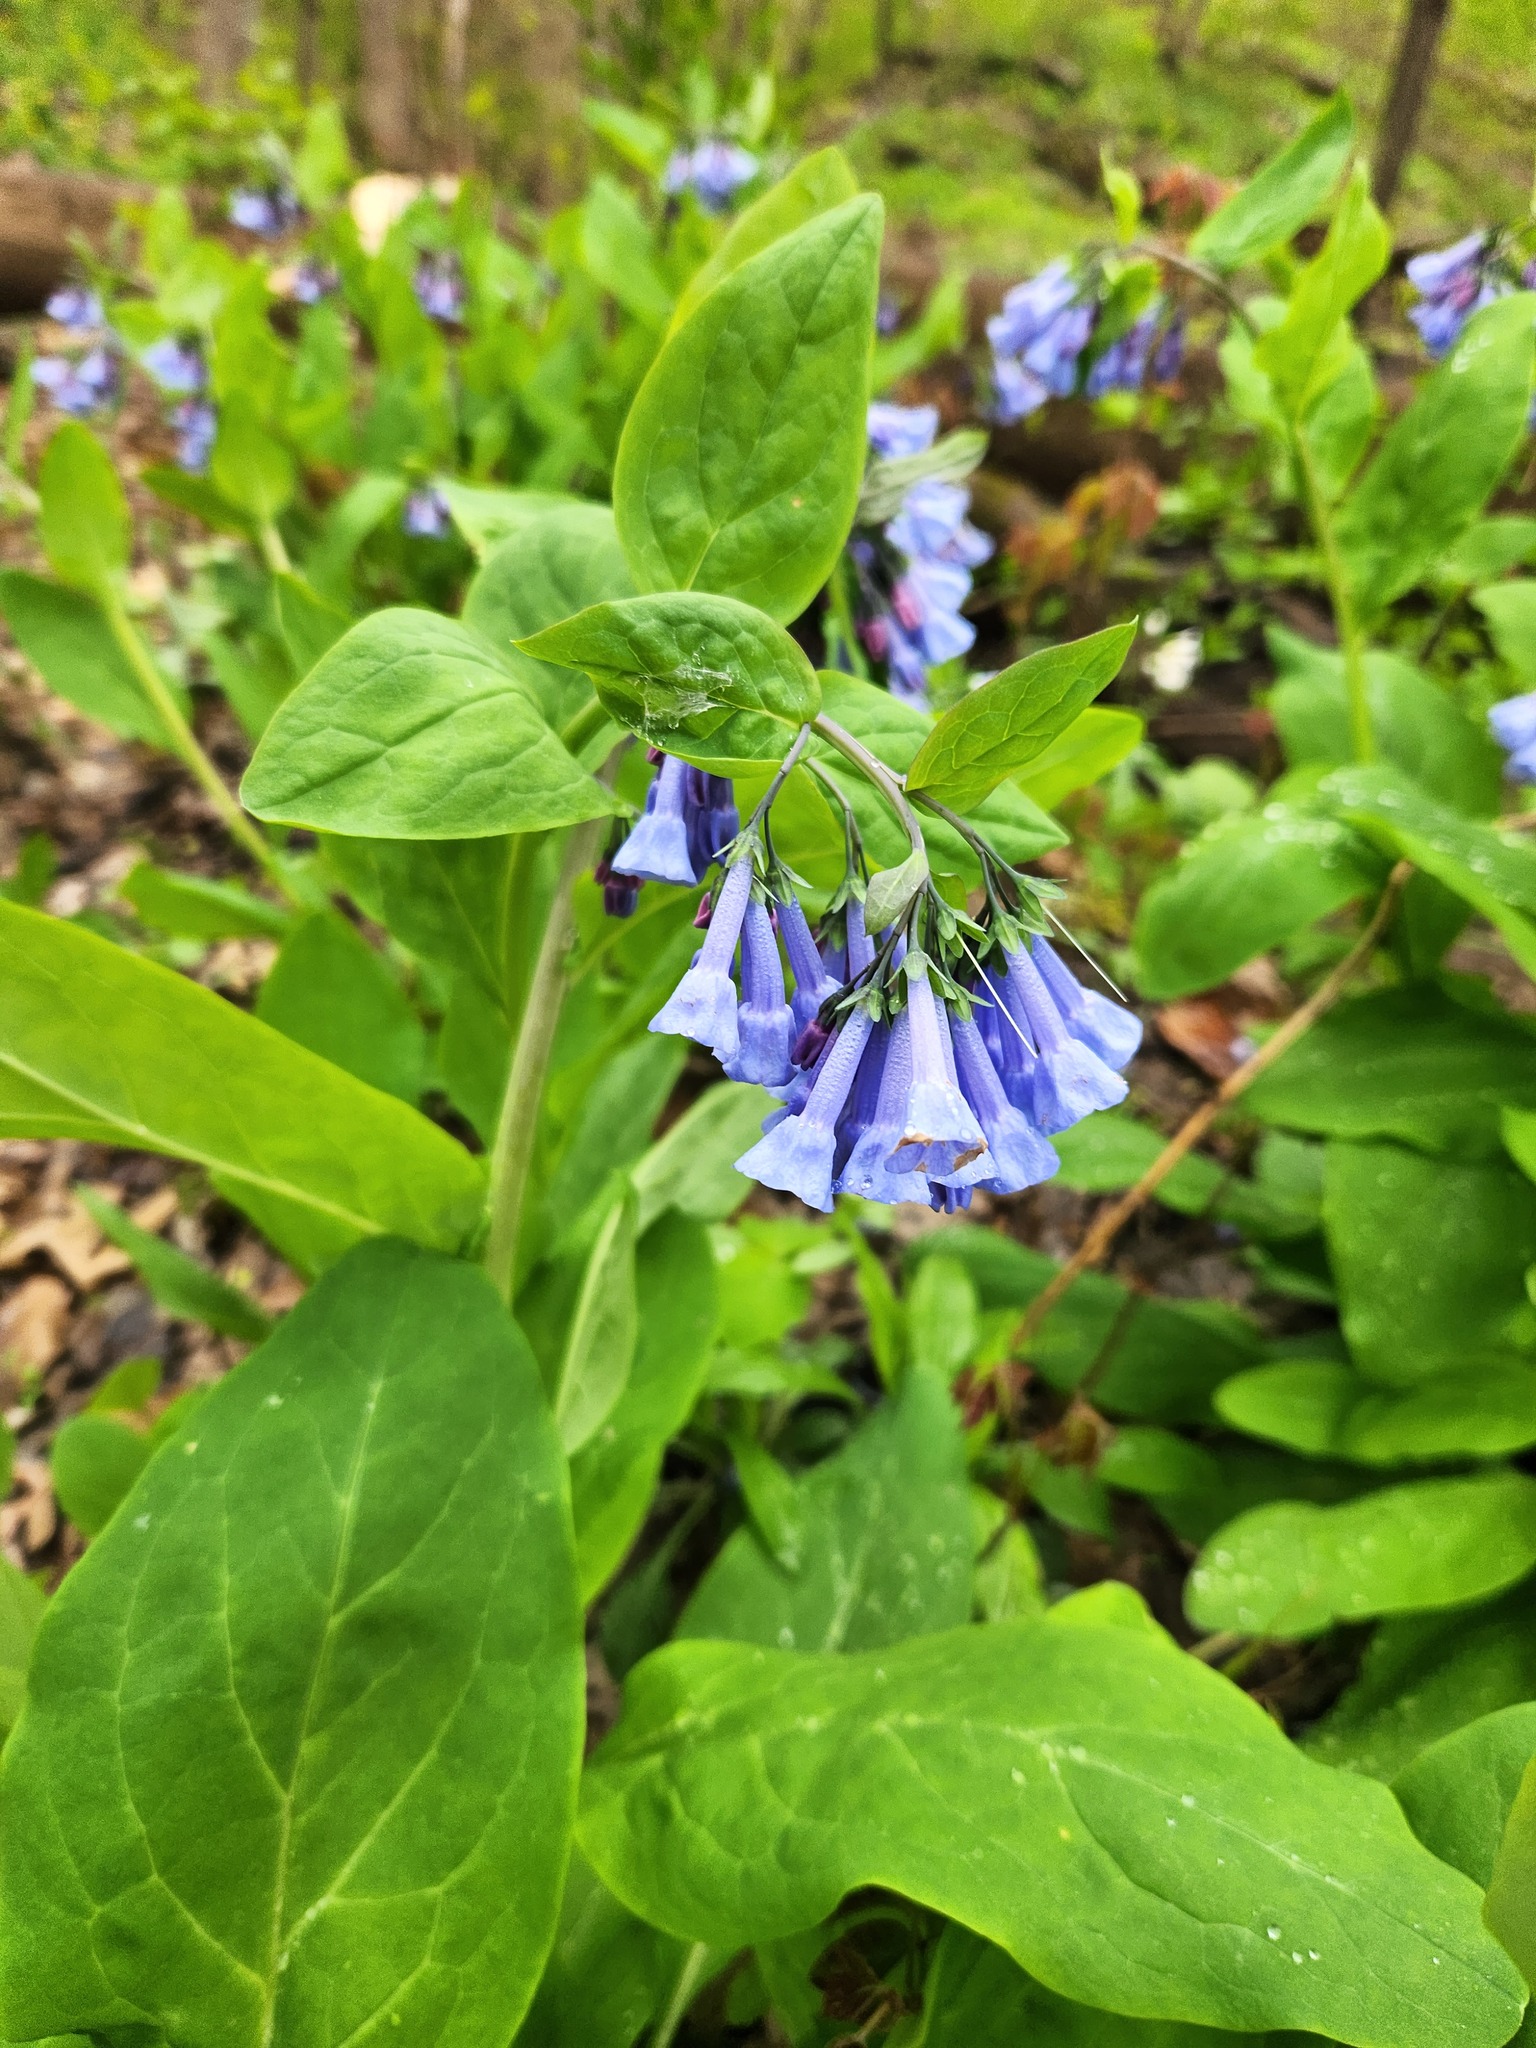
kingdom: Plantae
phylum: Tracheophyta
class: Magnoliopsida
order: Boraginales
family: Boraginaceae
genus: Mertensia
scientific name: Mertensia virginica
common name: Virginia bluebells
